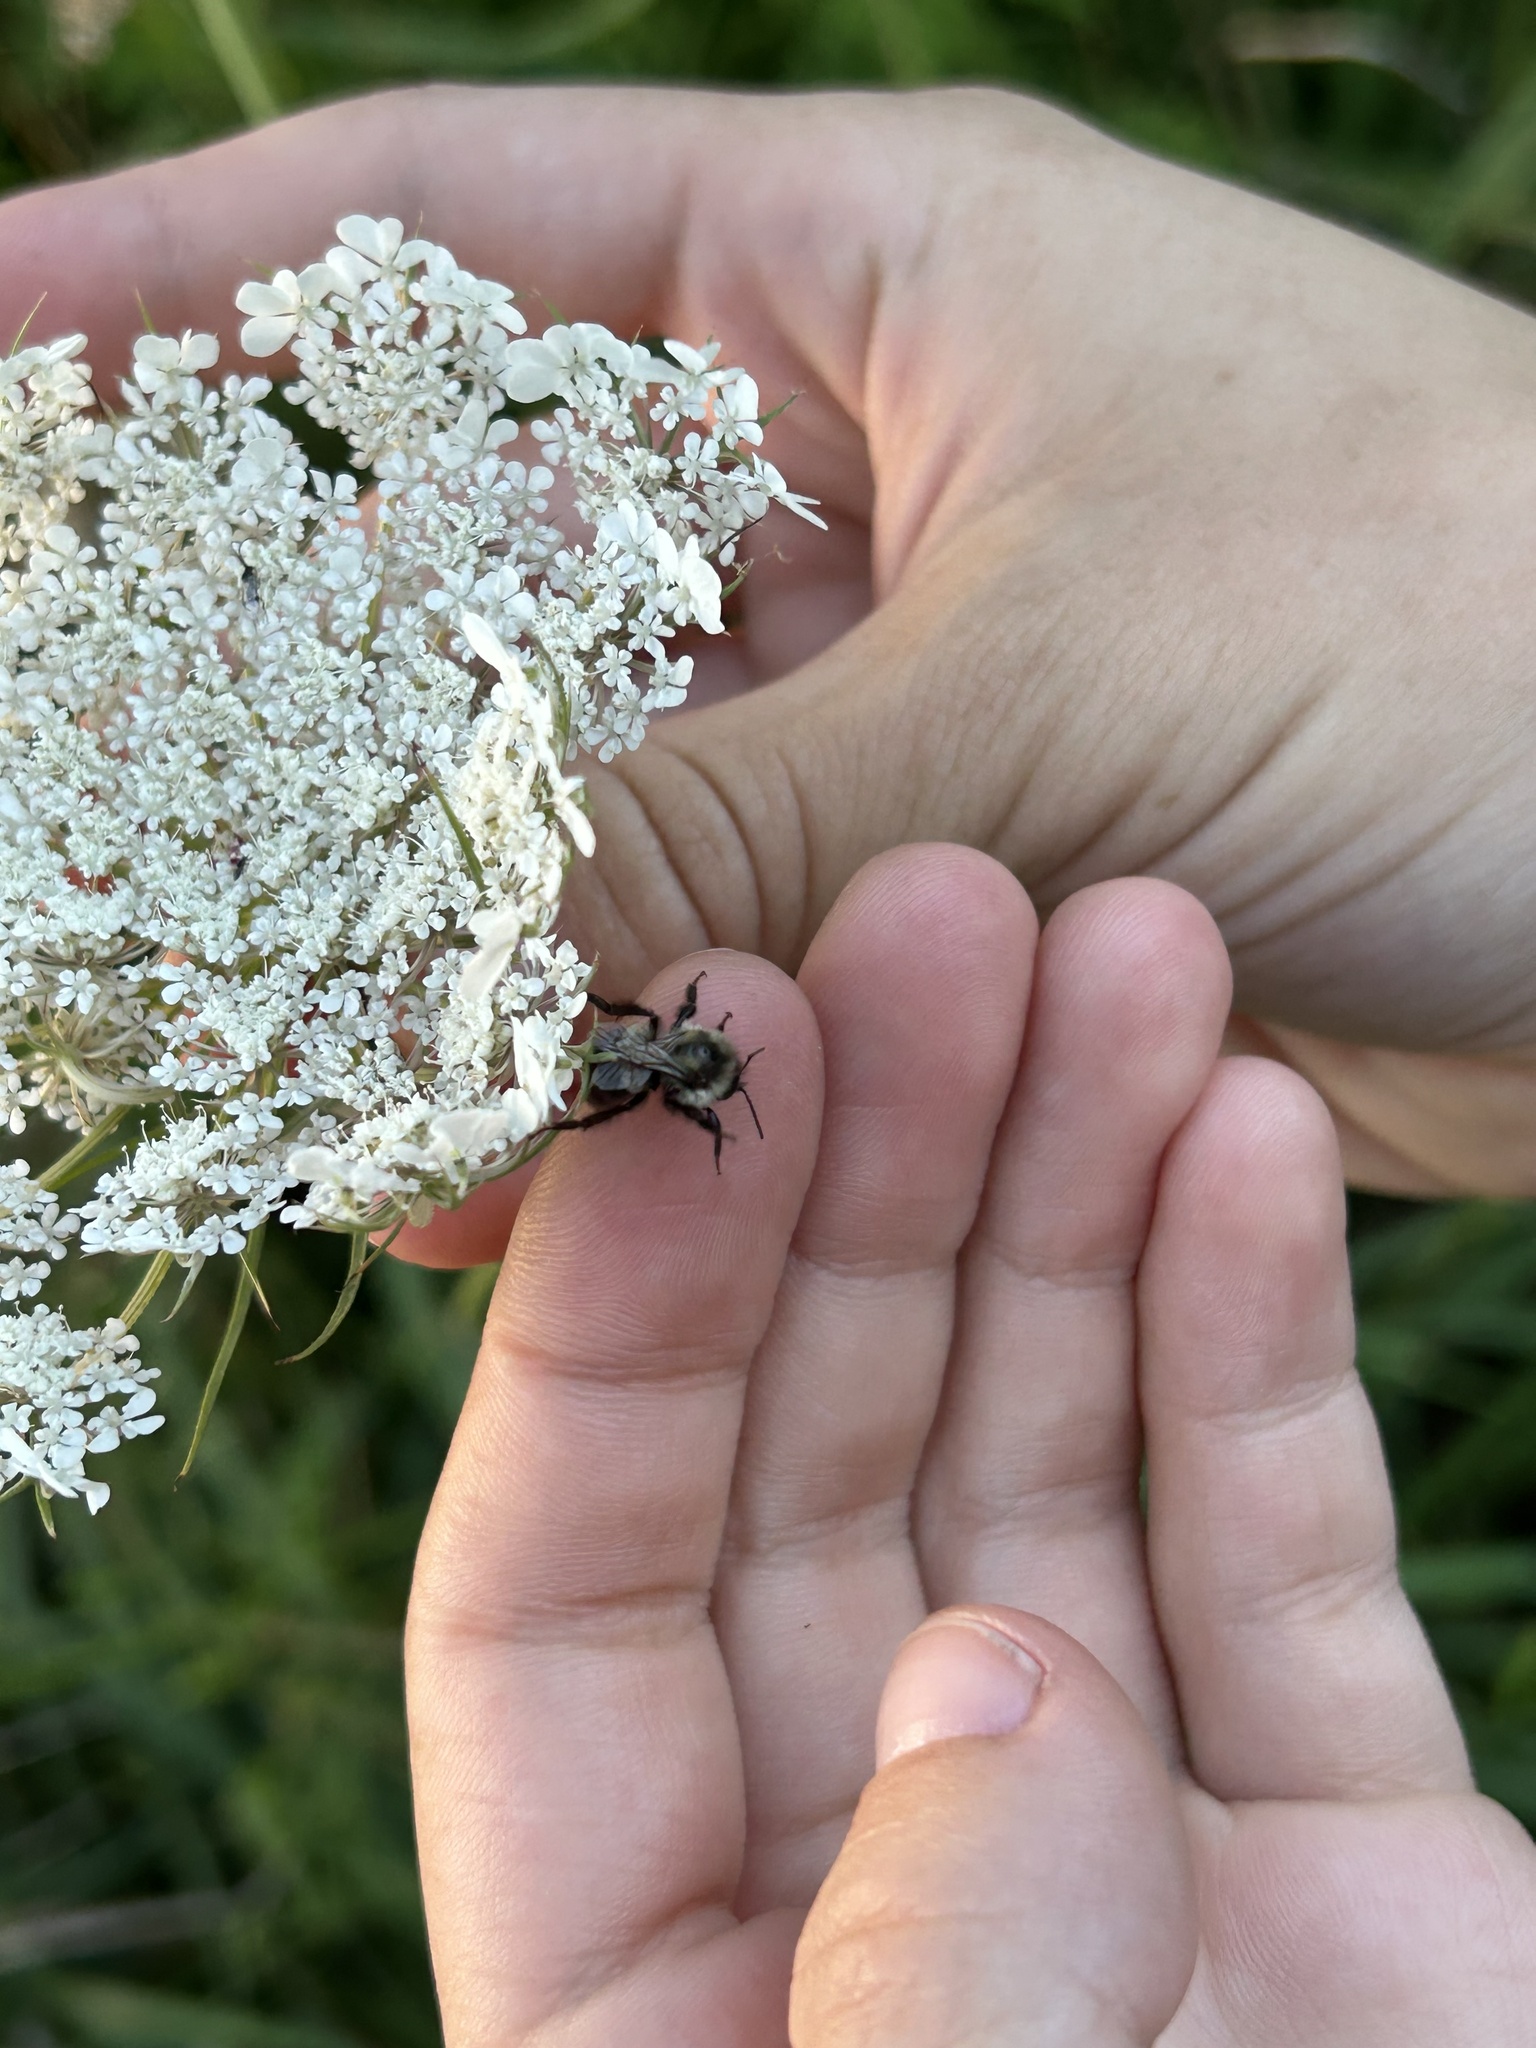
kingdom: Animalia
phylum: Arthropoda
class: Insecta
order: Hymenoptera
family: Apidae
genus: Bombus
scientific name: Bombus impatiens
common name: Common eastern bumble bee
